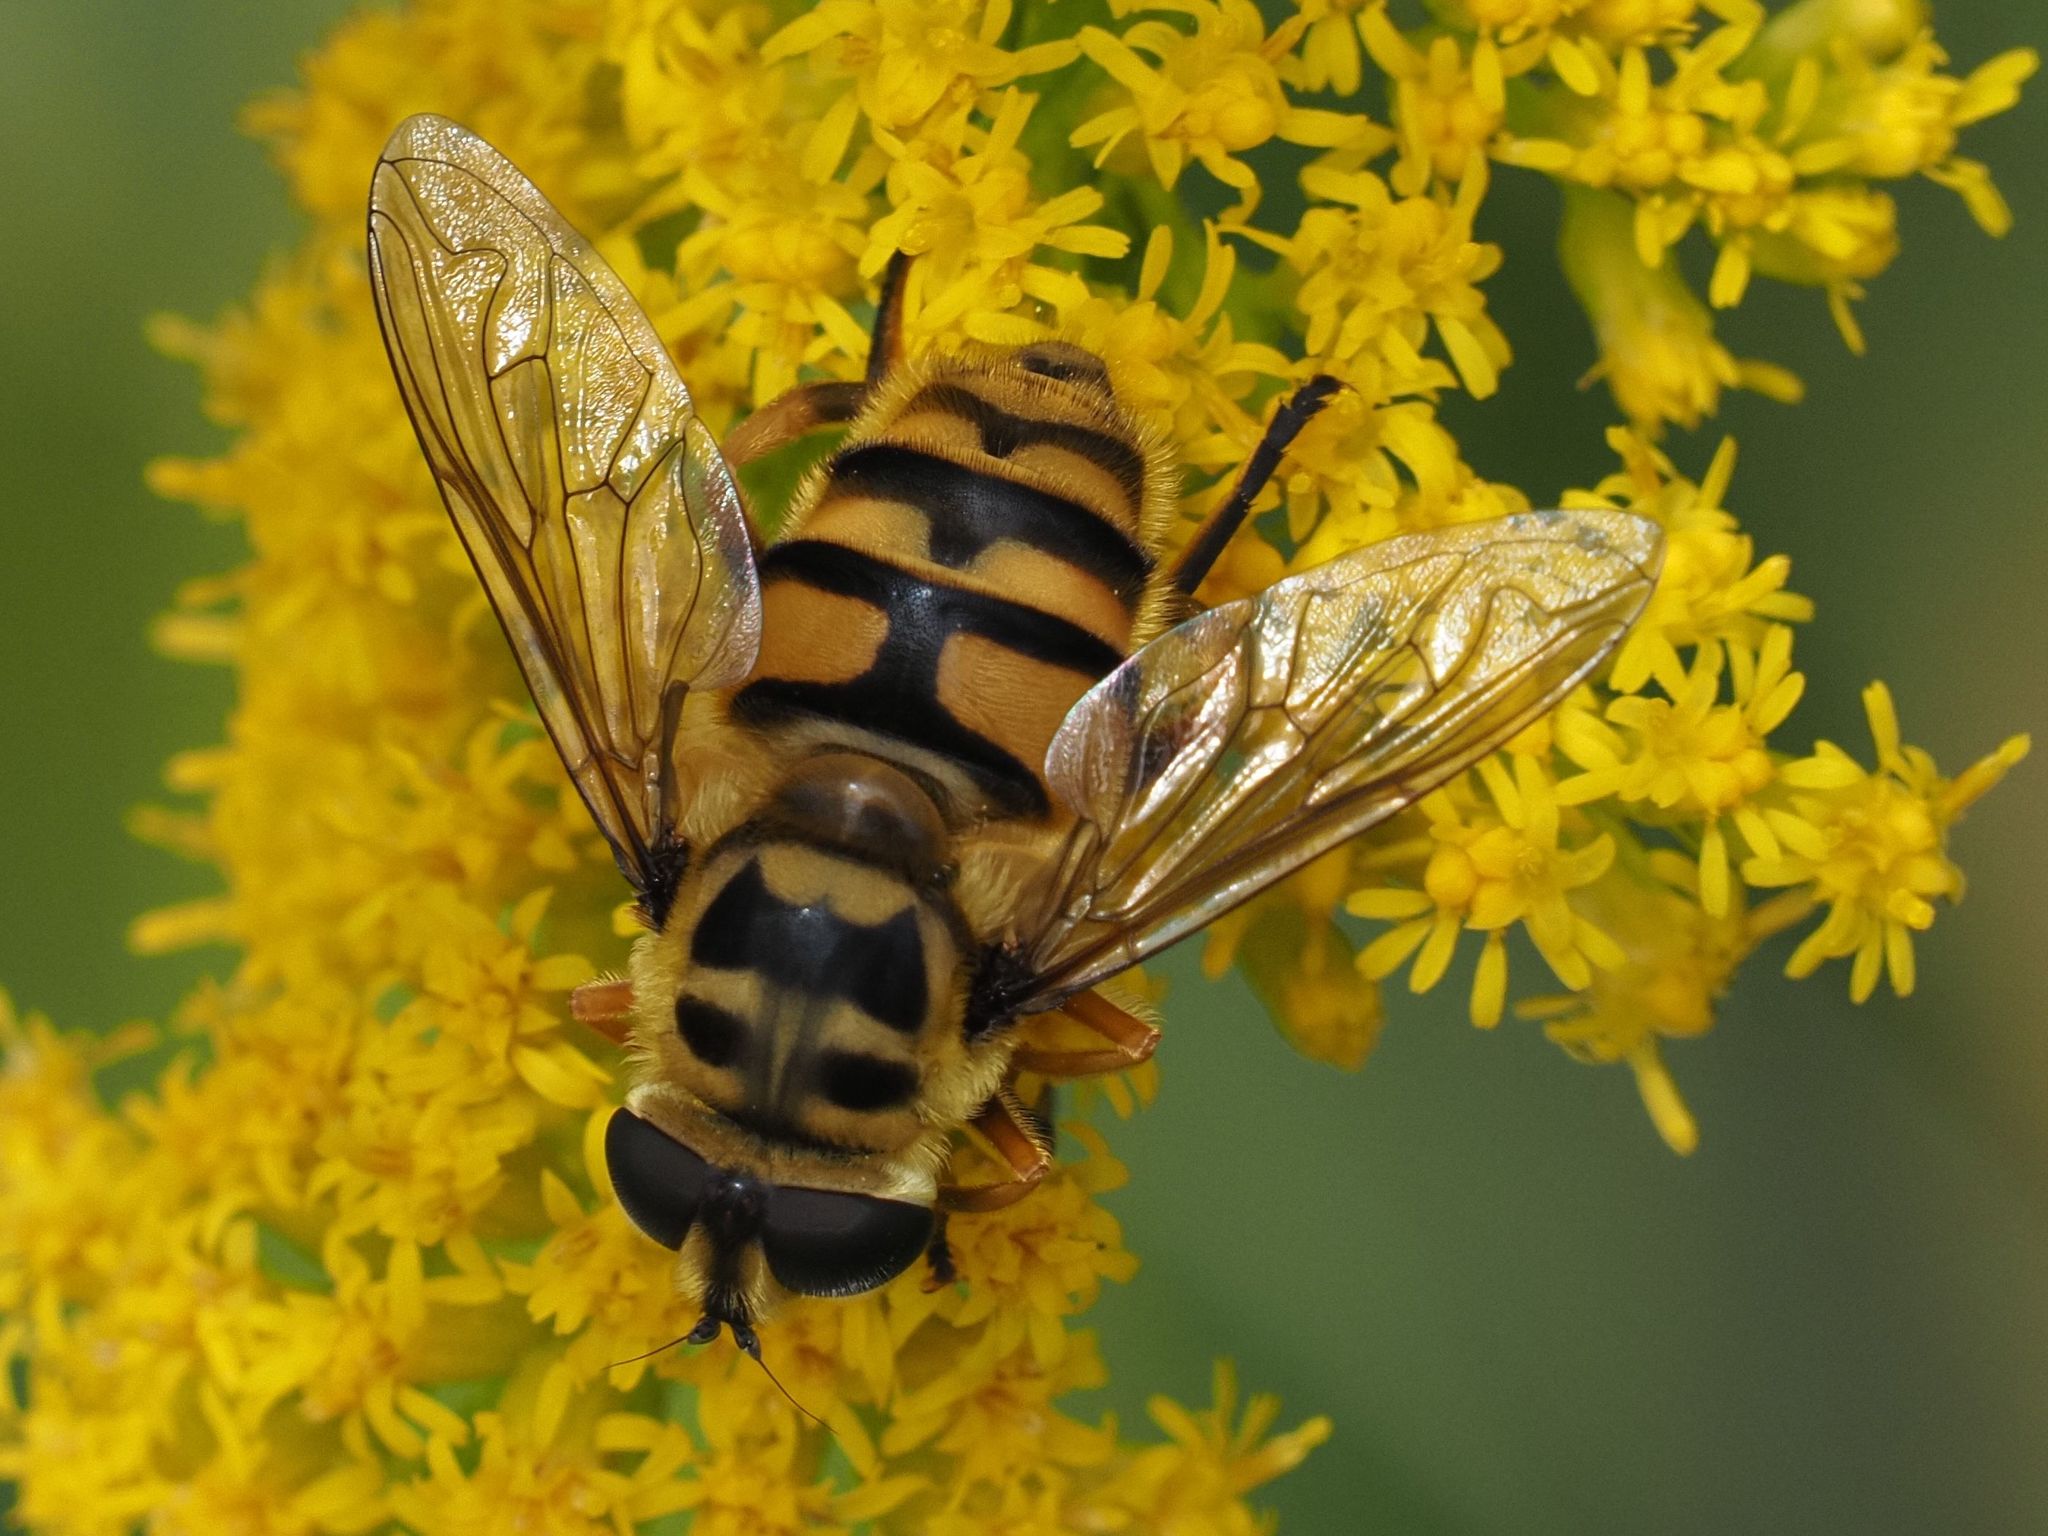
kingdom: Animalia
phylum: Arthropoda
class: Insecta
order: Diptera
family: Syrphidae
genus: Myathropa
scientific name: Myathropa florea
